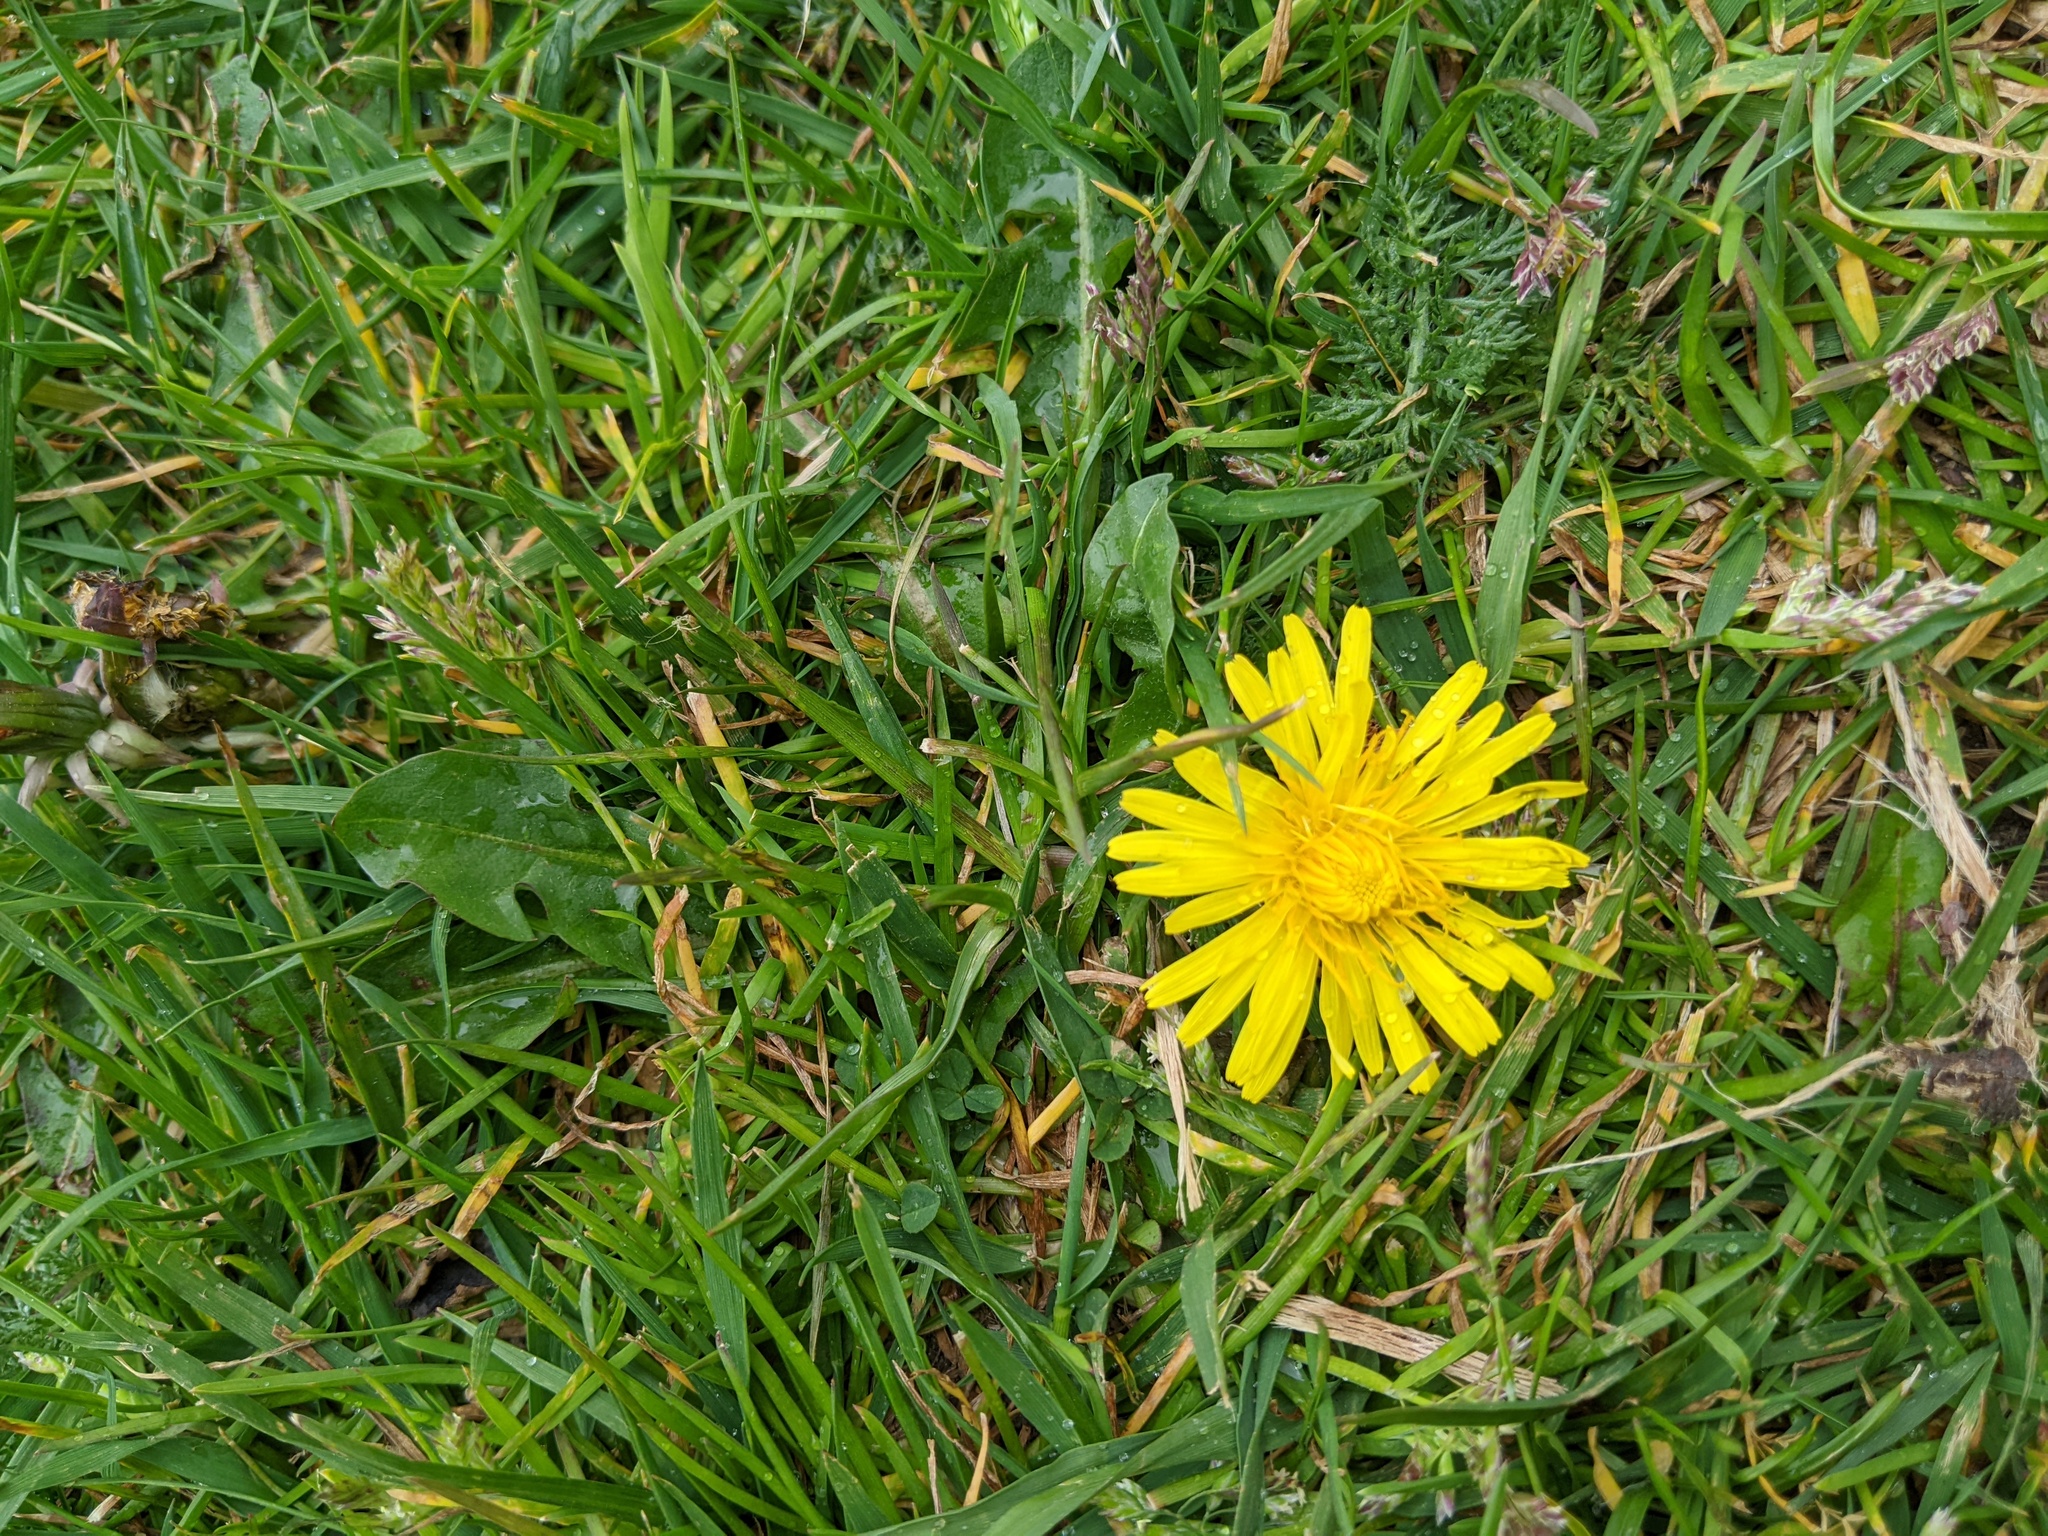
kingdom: Plantae
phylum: Tracheophyta
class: Magnoliopsida
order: Asterales
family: Asteraceae
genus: Taraxacum
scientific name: Taraxacum officinale
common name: Common dandelion
